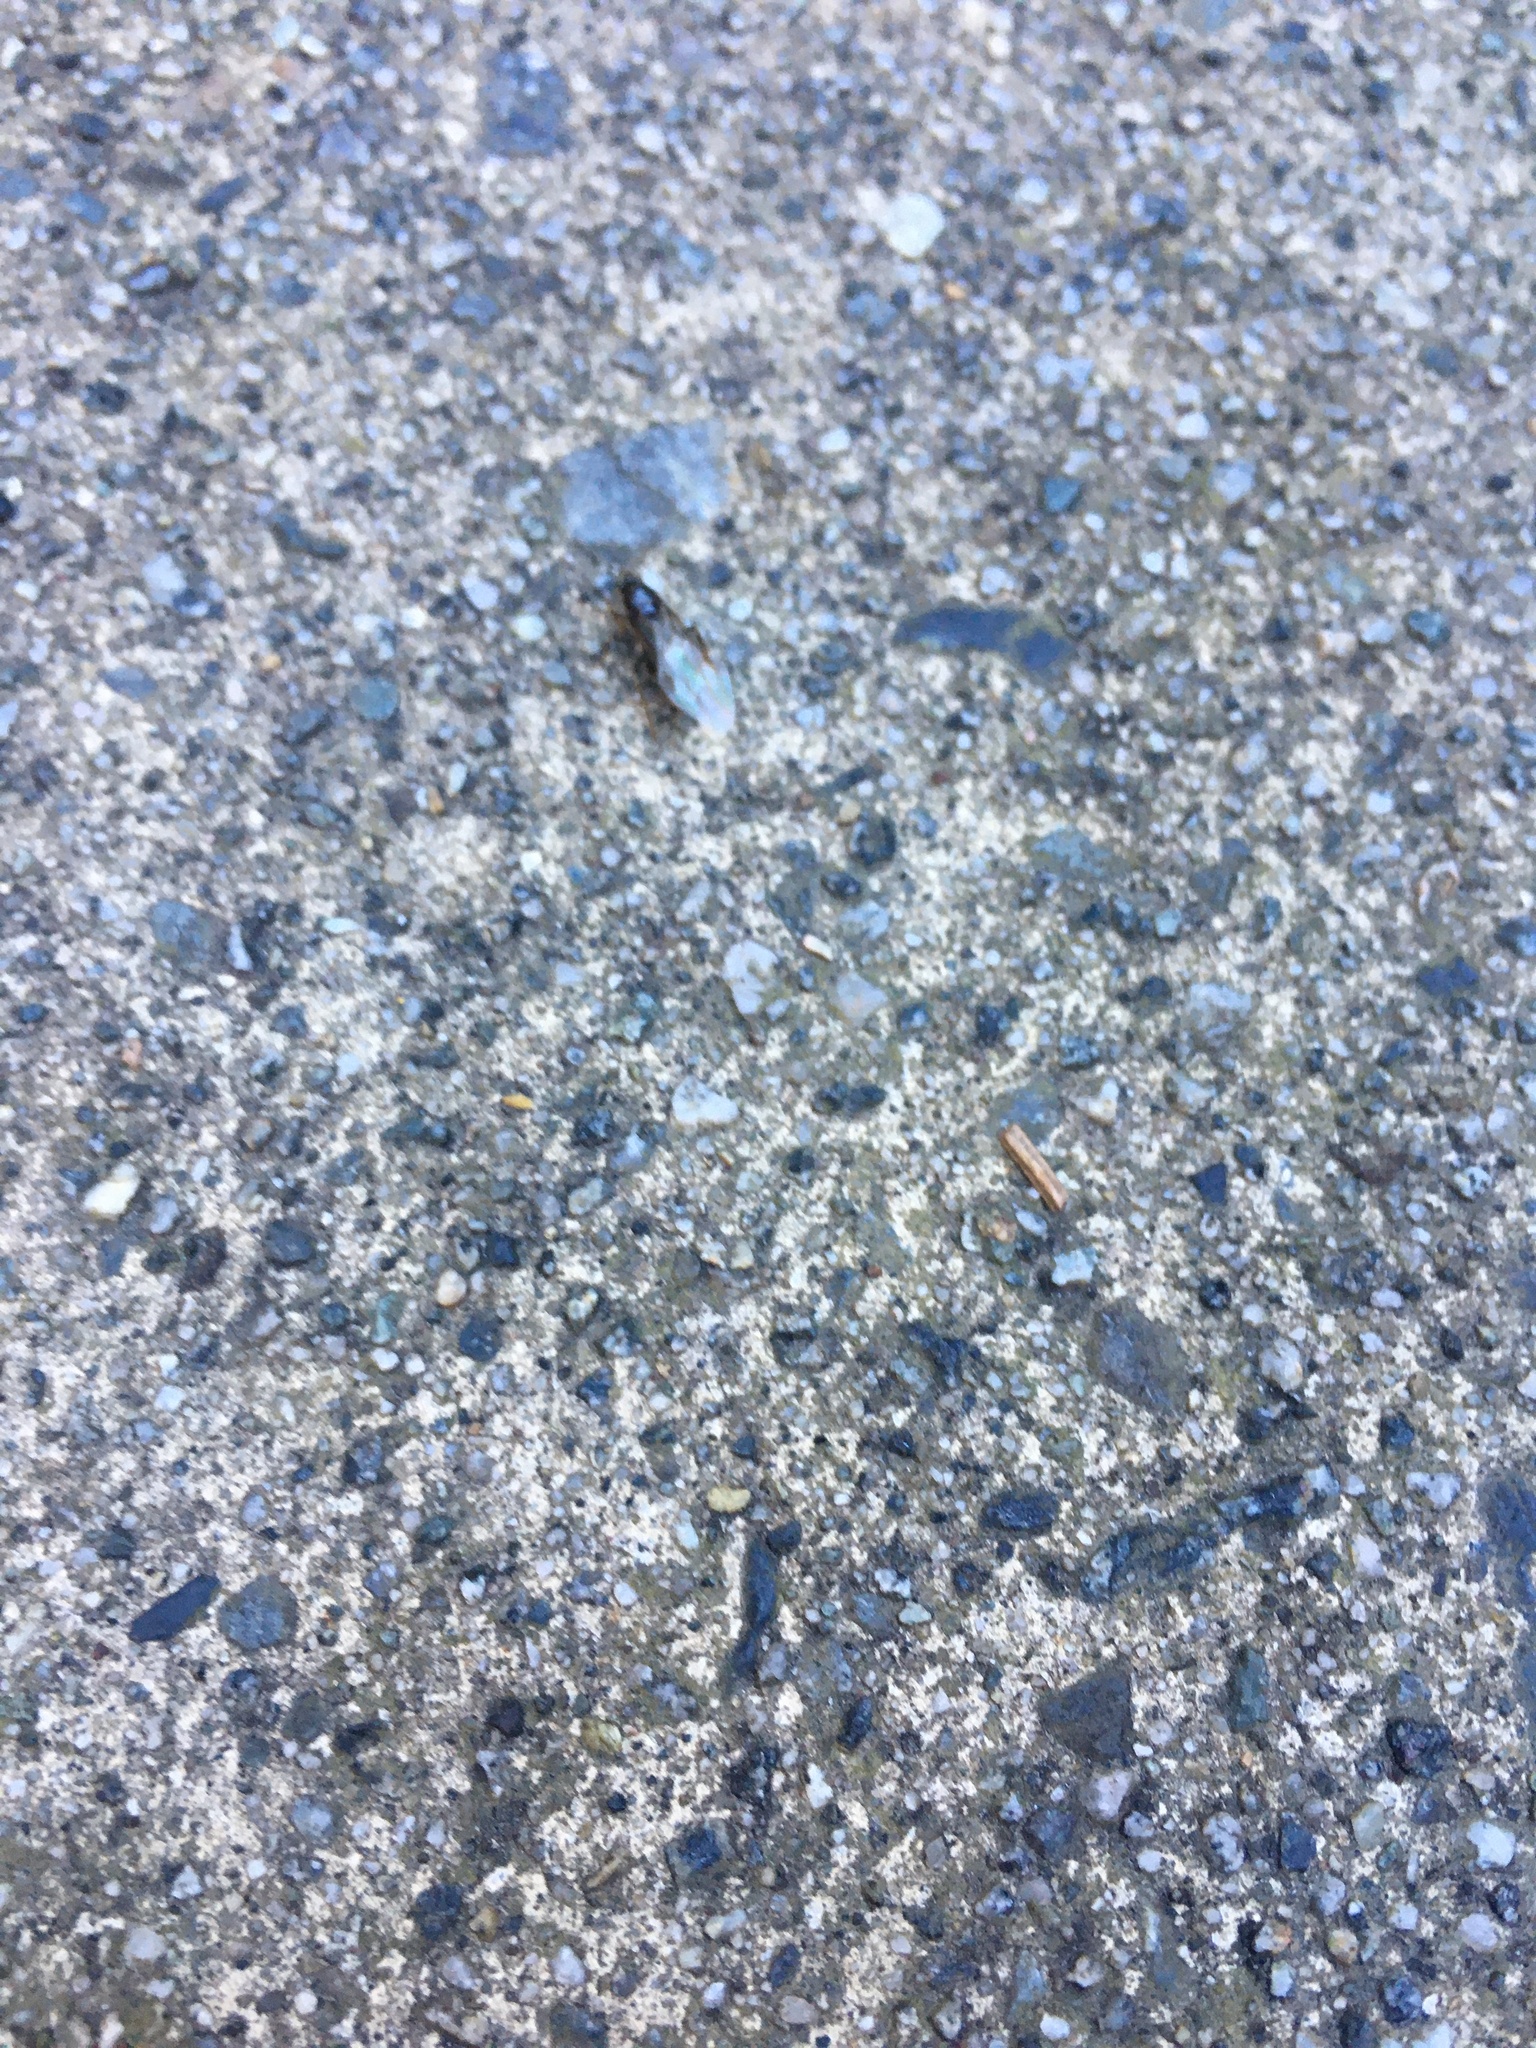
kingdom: Animalia
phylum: Arthropoda
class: Insecta
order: Hymenoptera
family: Formicidae
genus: Lasius
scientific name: Lasius niger
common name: Small black ant
